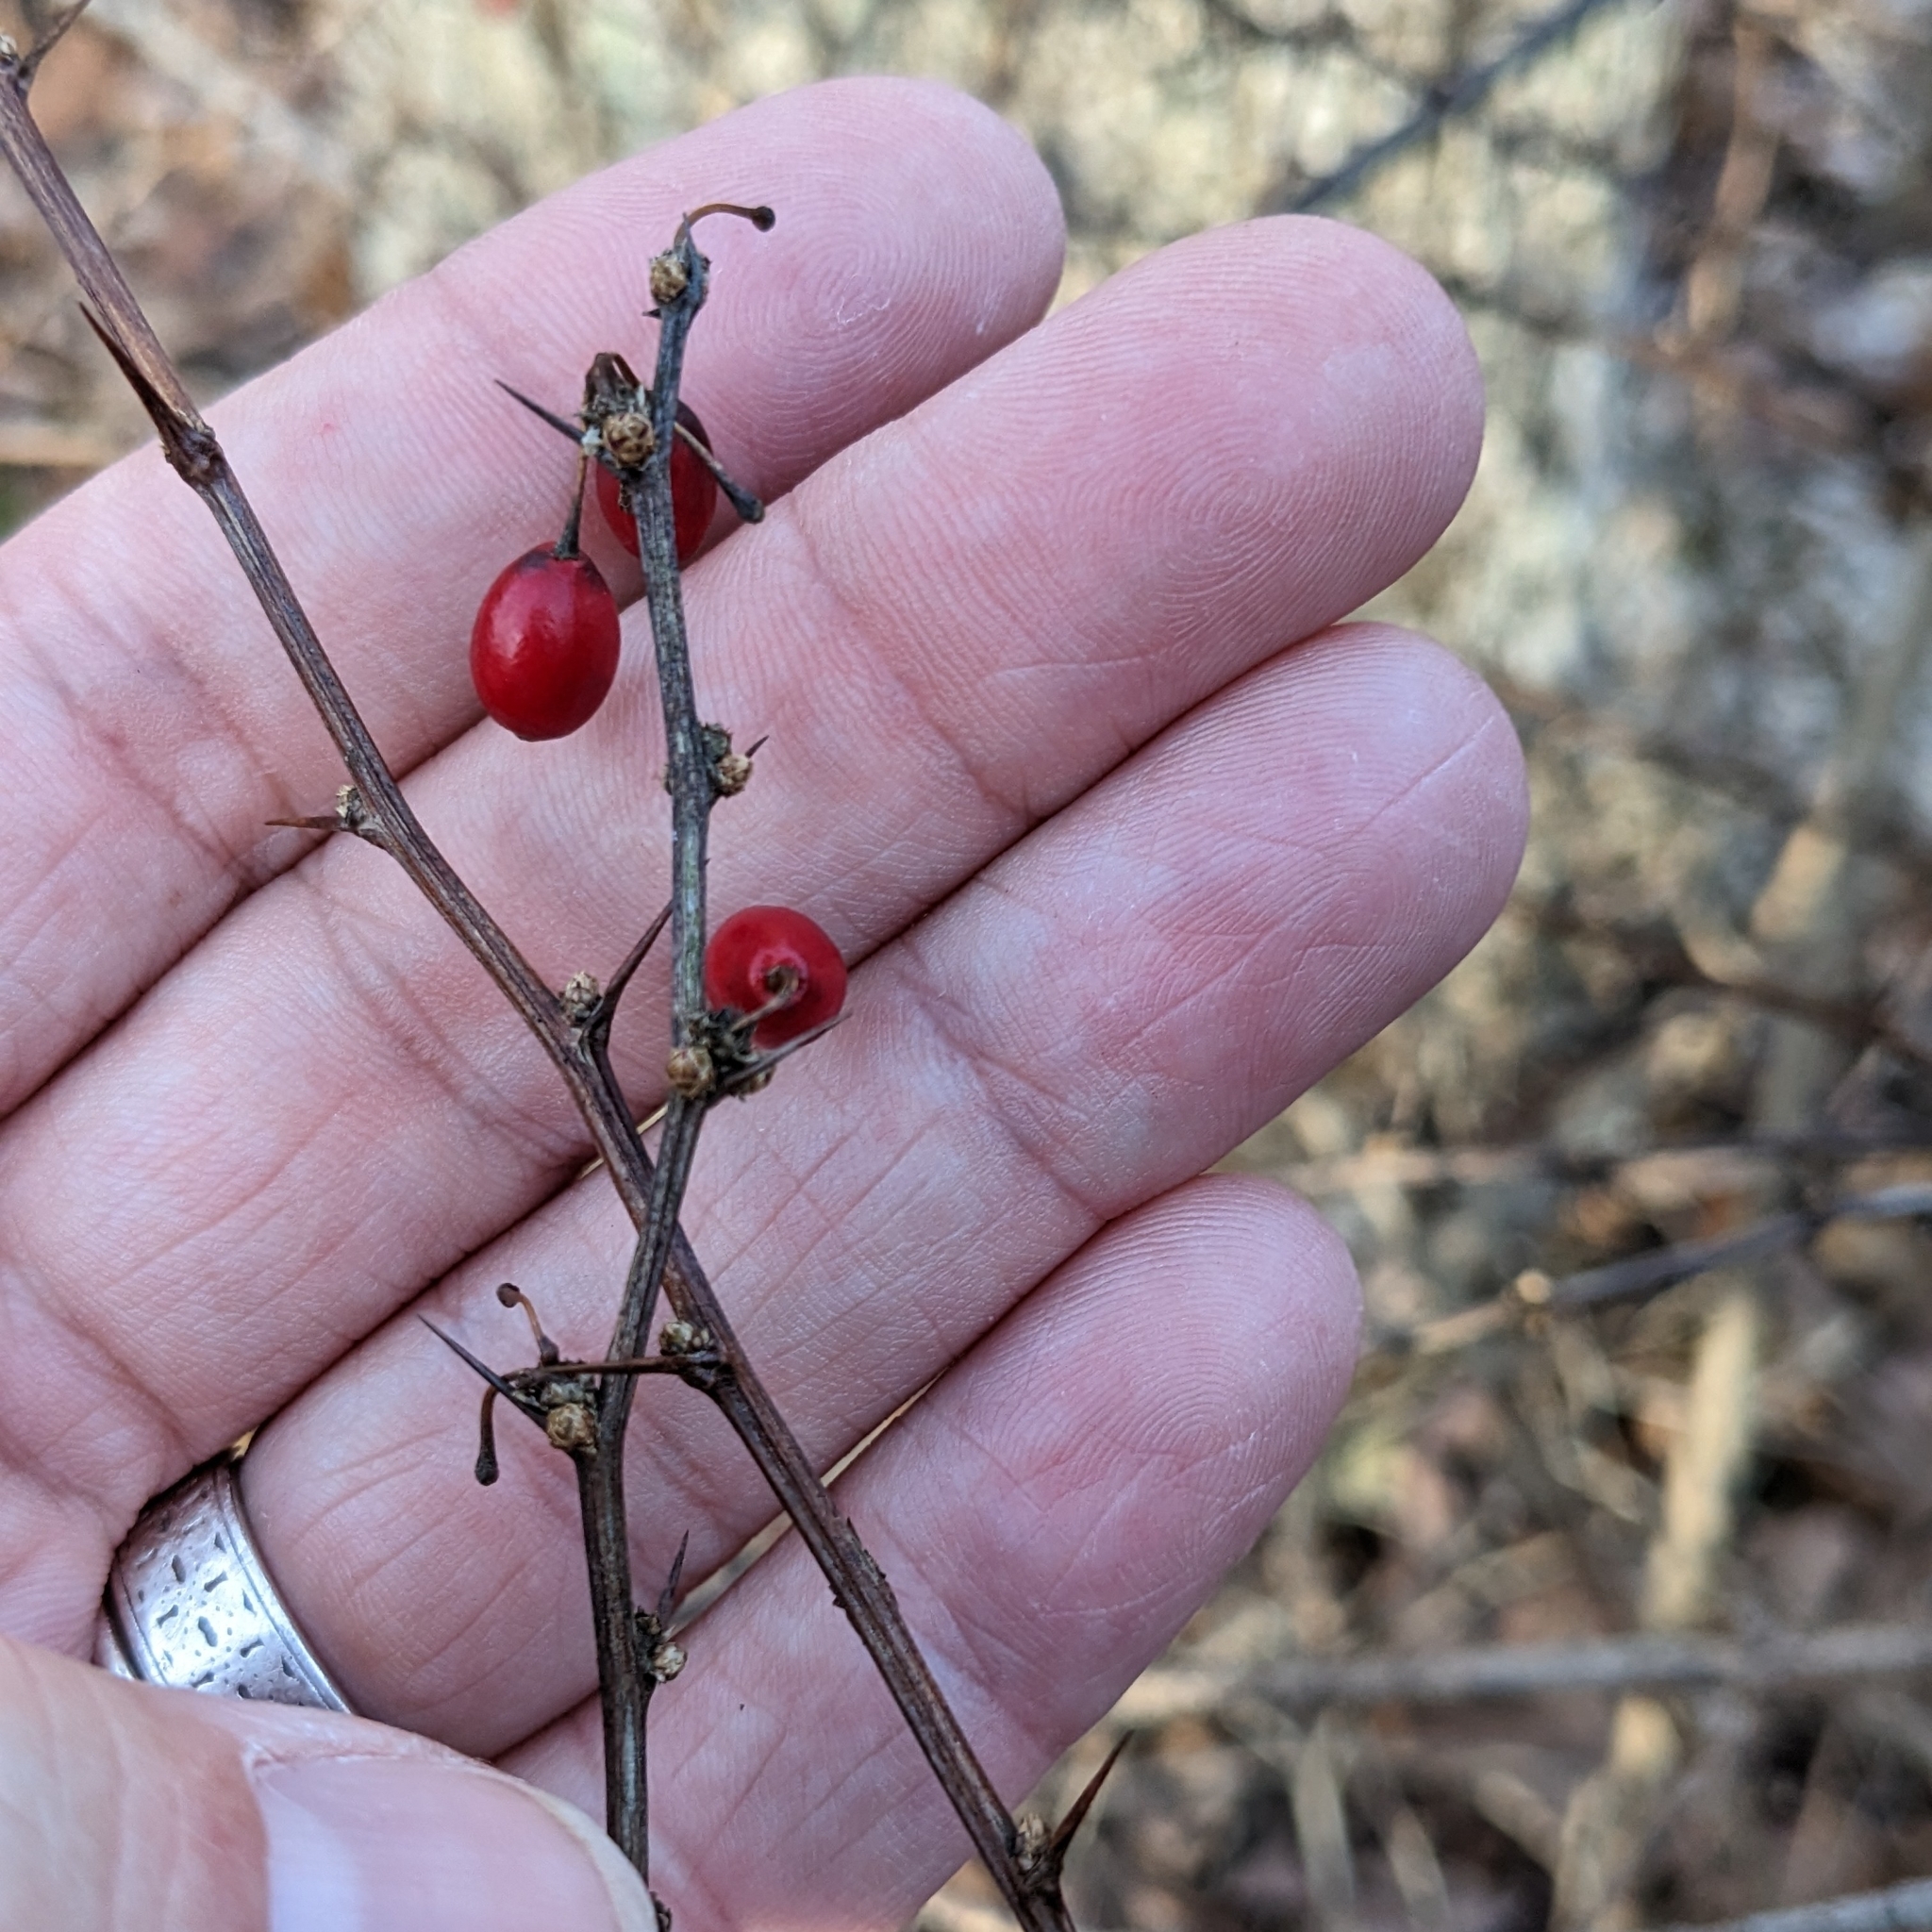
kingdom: Plantae
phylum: Tracheophyta
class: Magnoliopsida
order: Ranunculales
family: Berberidaceae
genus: Berberis
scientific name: Berberis thunbergii
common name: Japanese barberry
